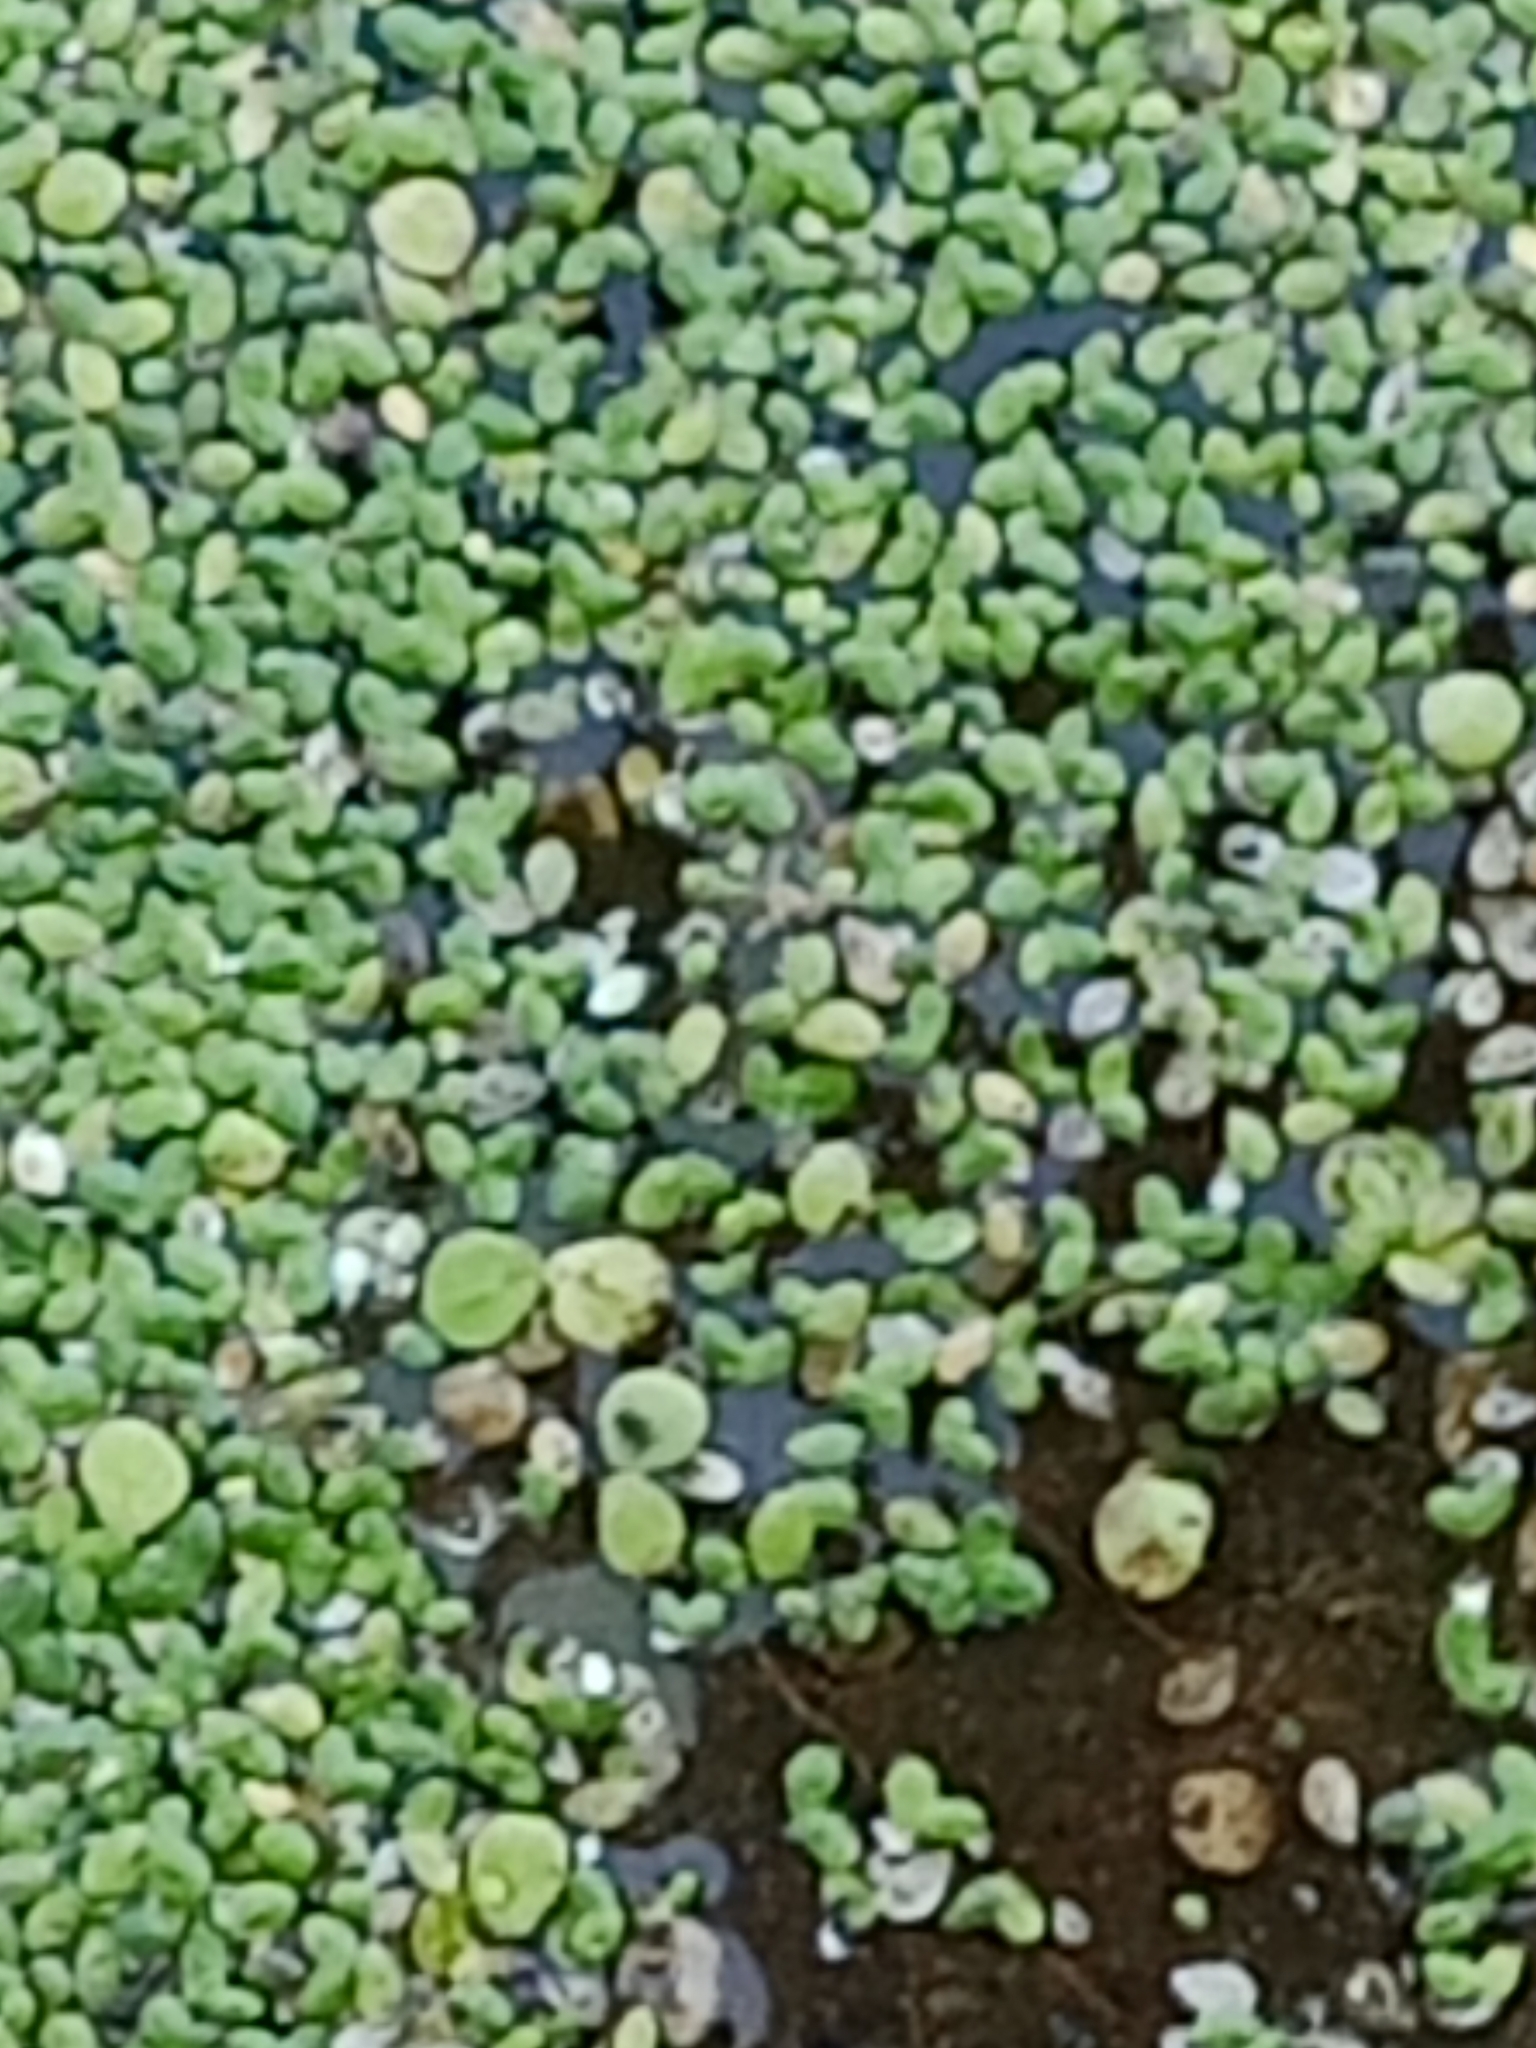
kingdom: Plantae
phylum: Tracheophyta
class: Liliopsida
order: Alismatales
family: Araceae
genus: Spirodela
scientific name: Spirodela polyrhiza
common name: Great duckweed
